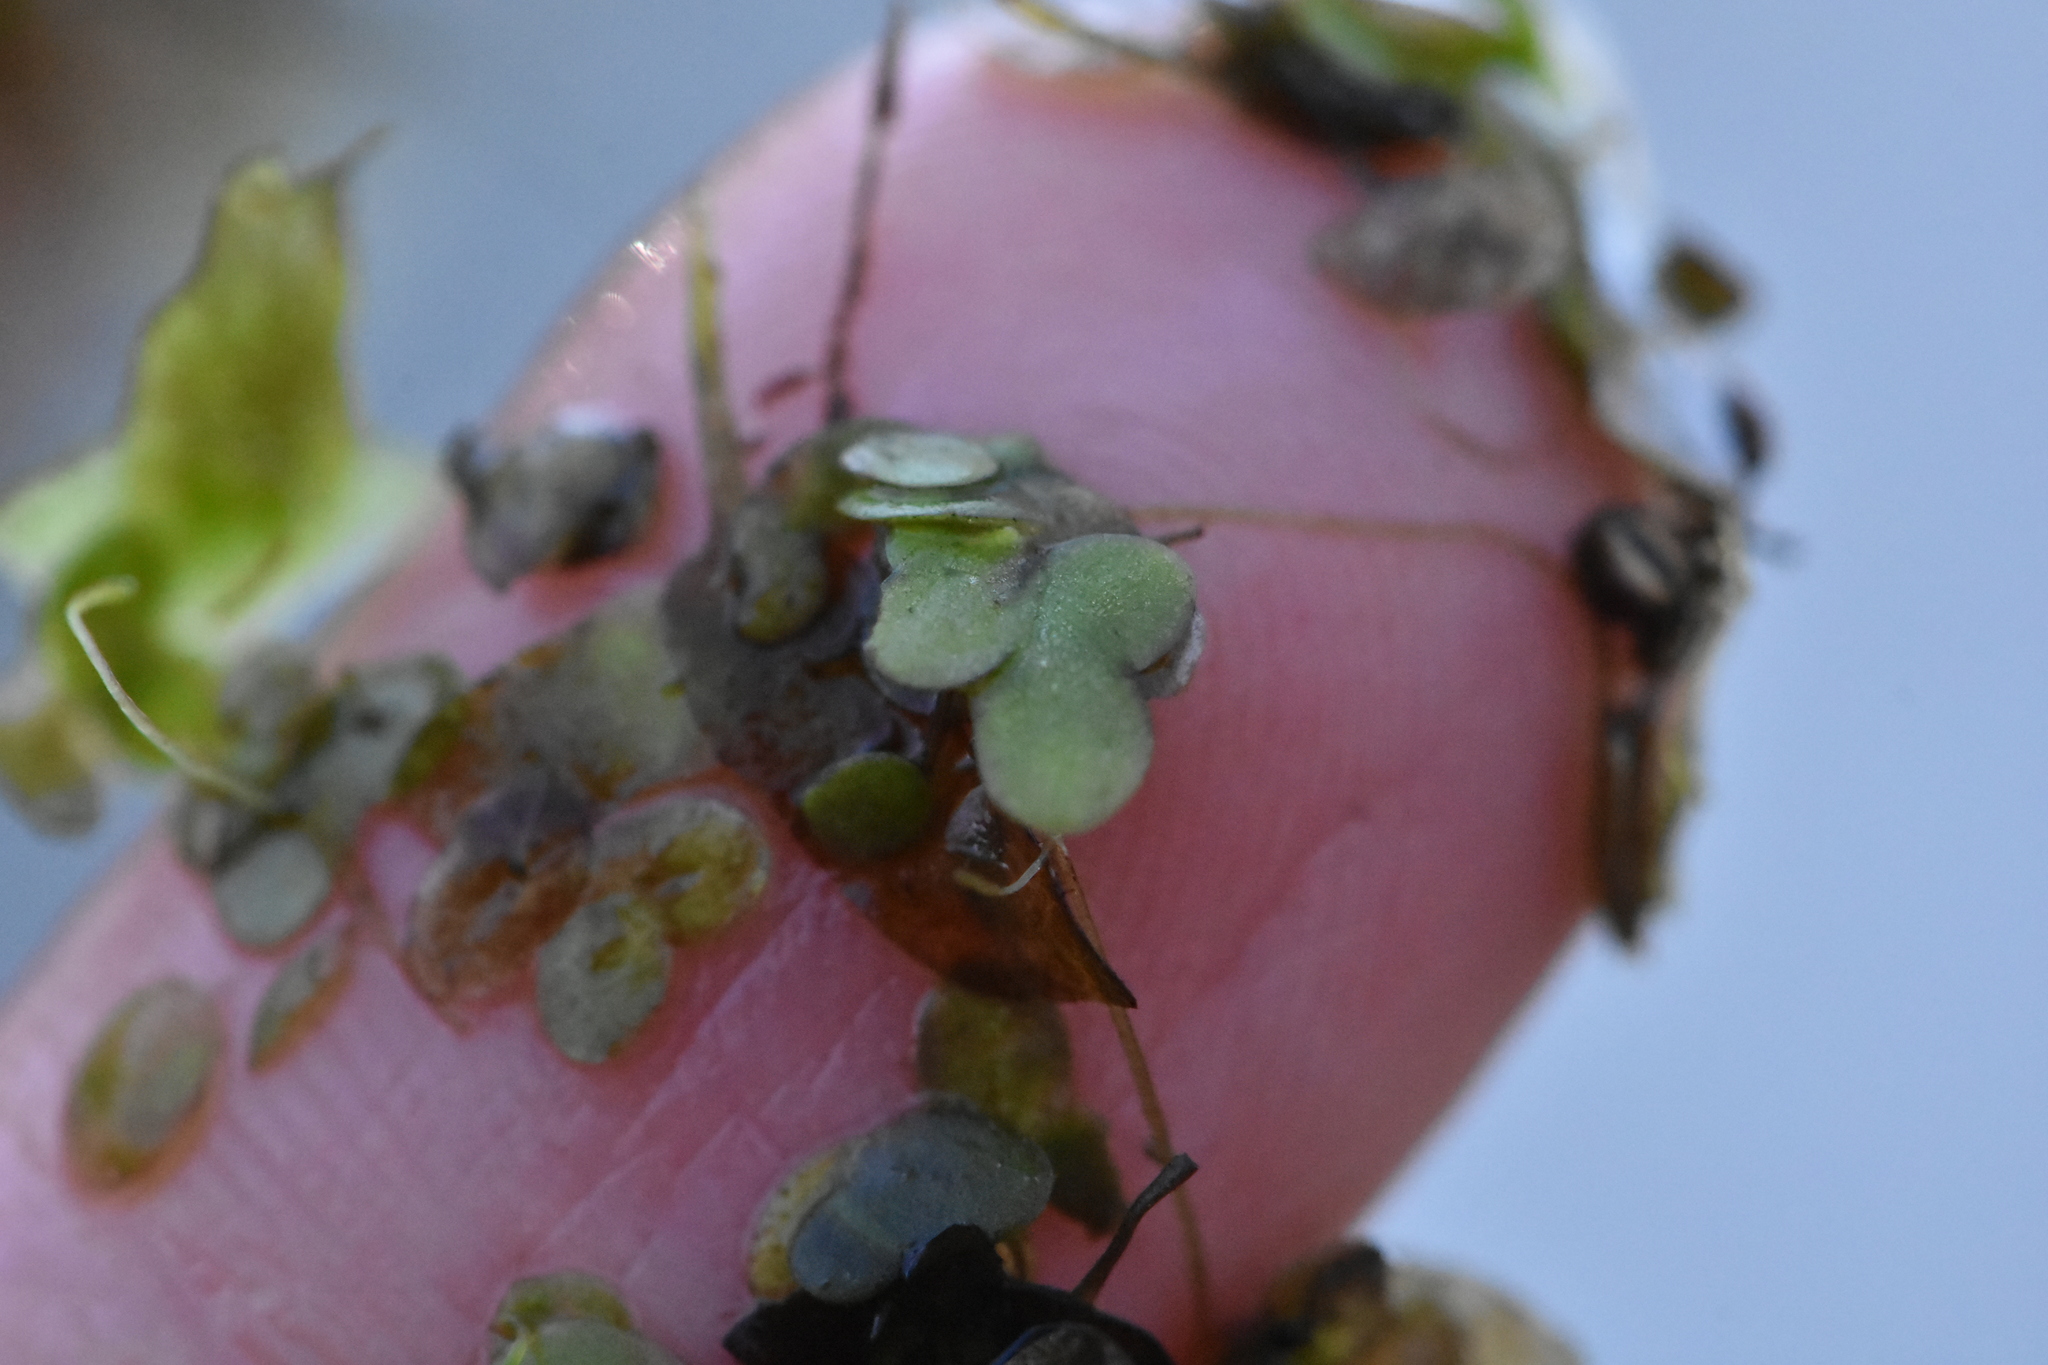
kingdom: Plantae
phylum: Tracheophyta
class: Liliopsida
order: Alismatales
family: Araceae
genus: Lemna
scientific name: Lemna minor
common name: Common duckweed
